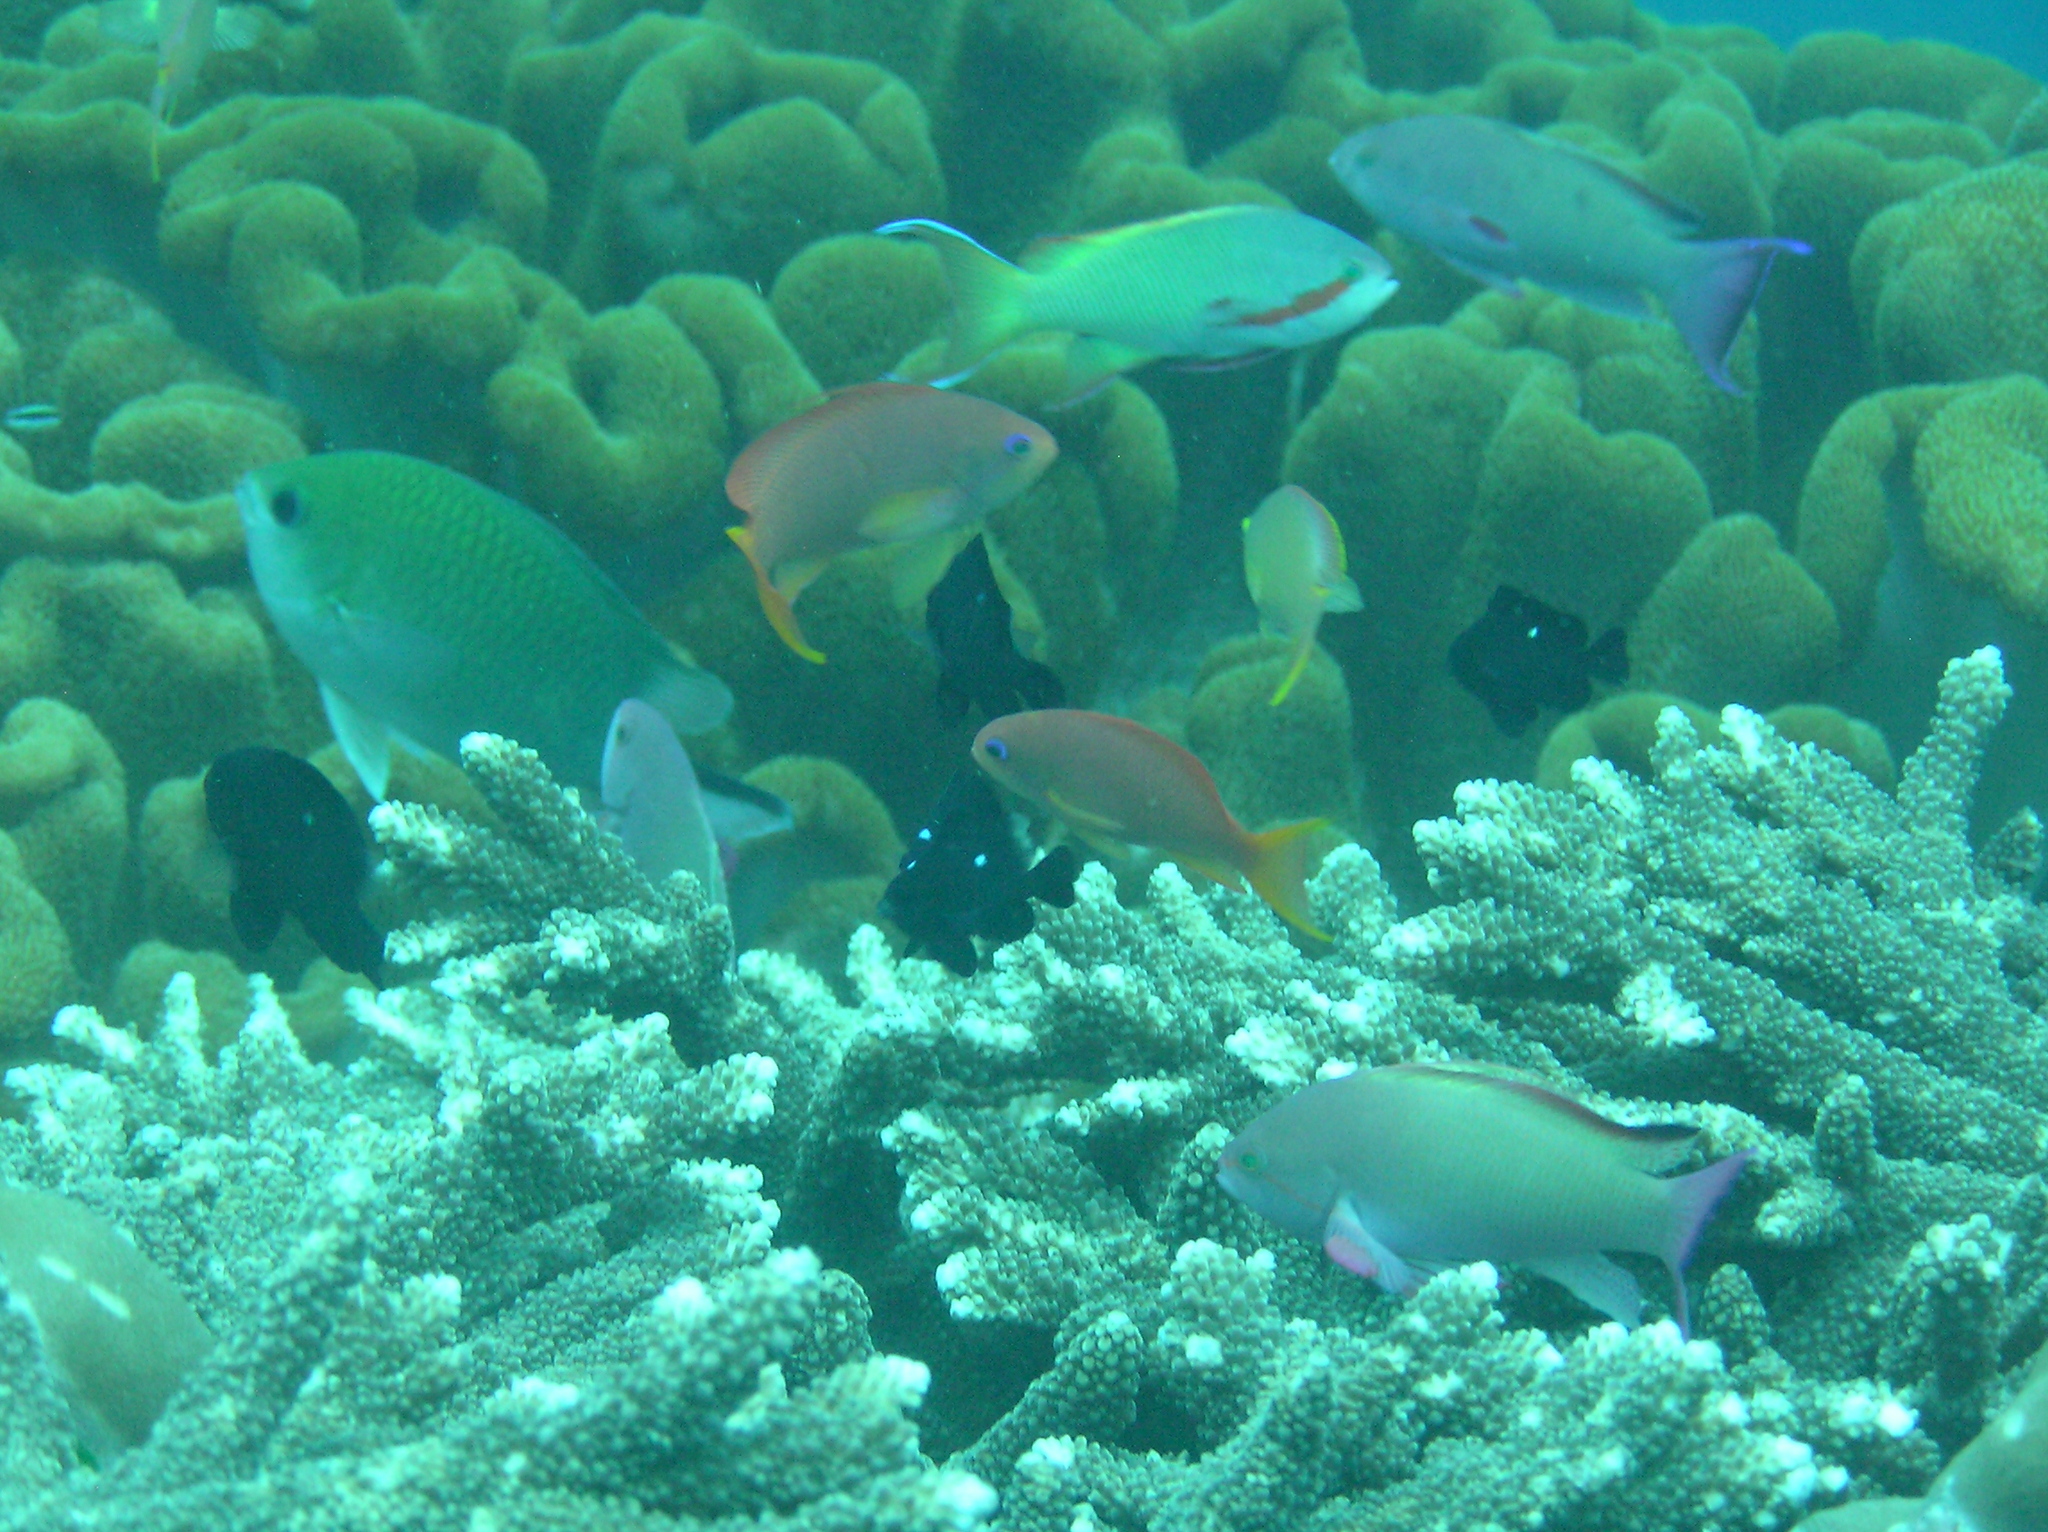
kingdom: Animalia
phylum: Chordata
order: Perciformes
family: Serranidae
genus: Pseudanthias
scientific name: Pseudanthias huchtii
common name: Pacific basslet
